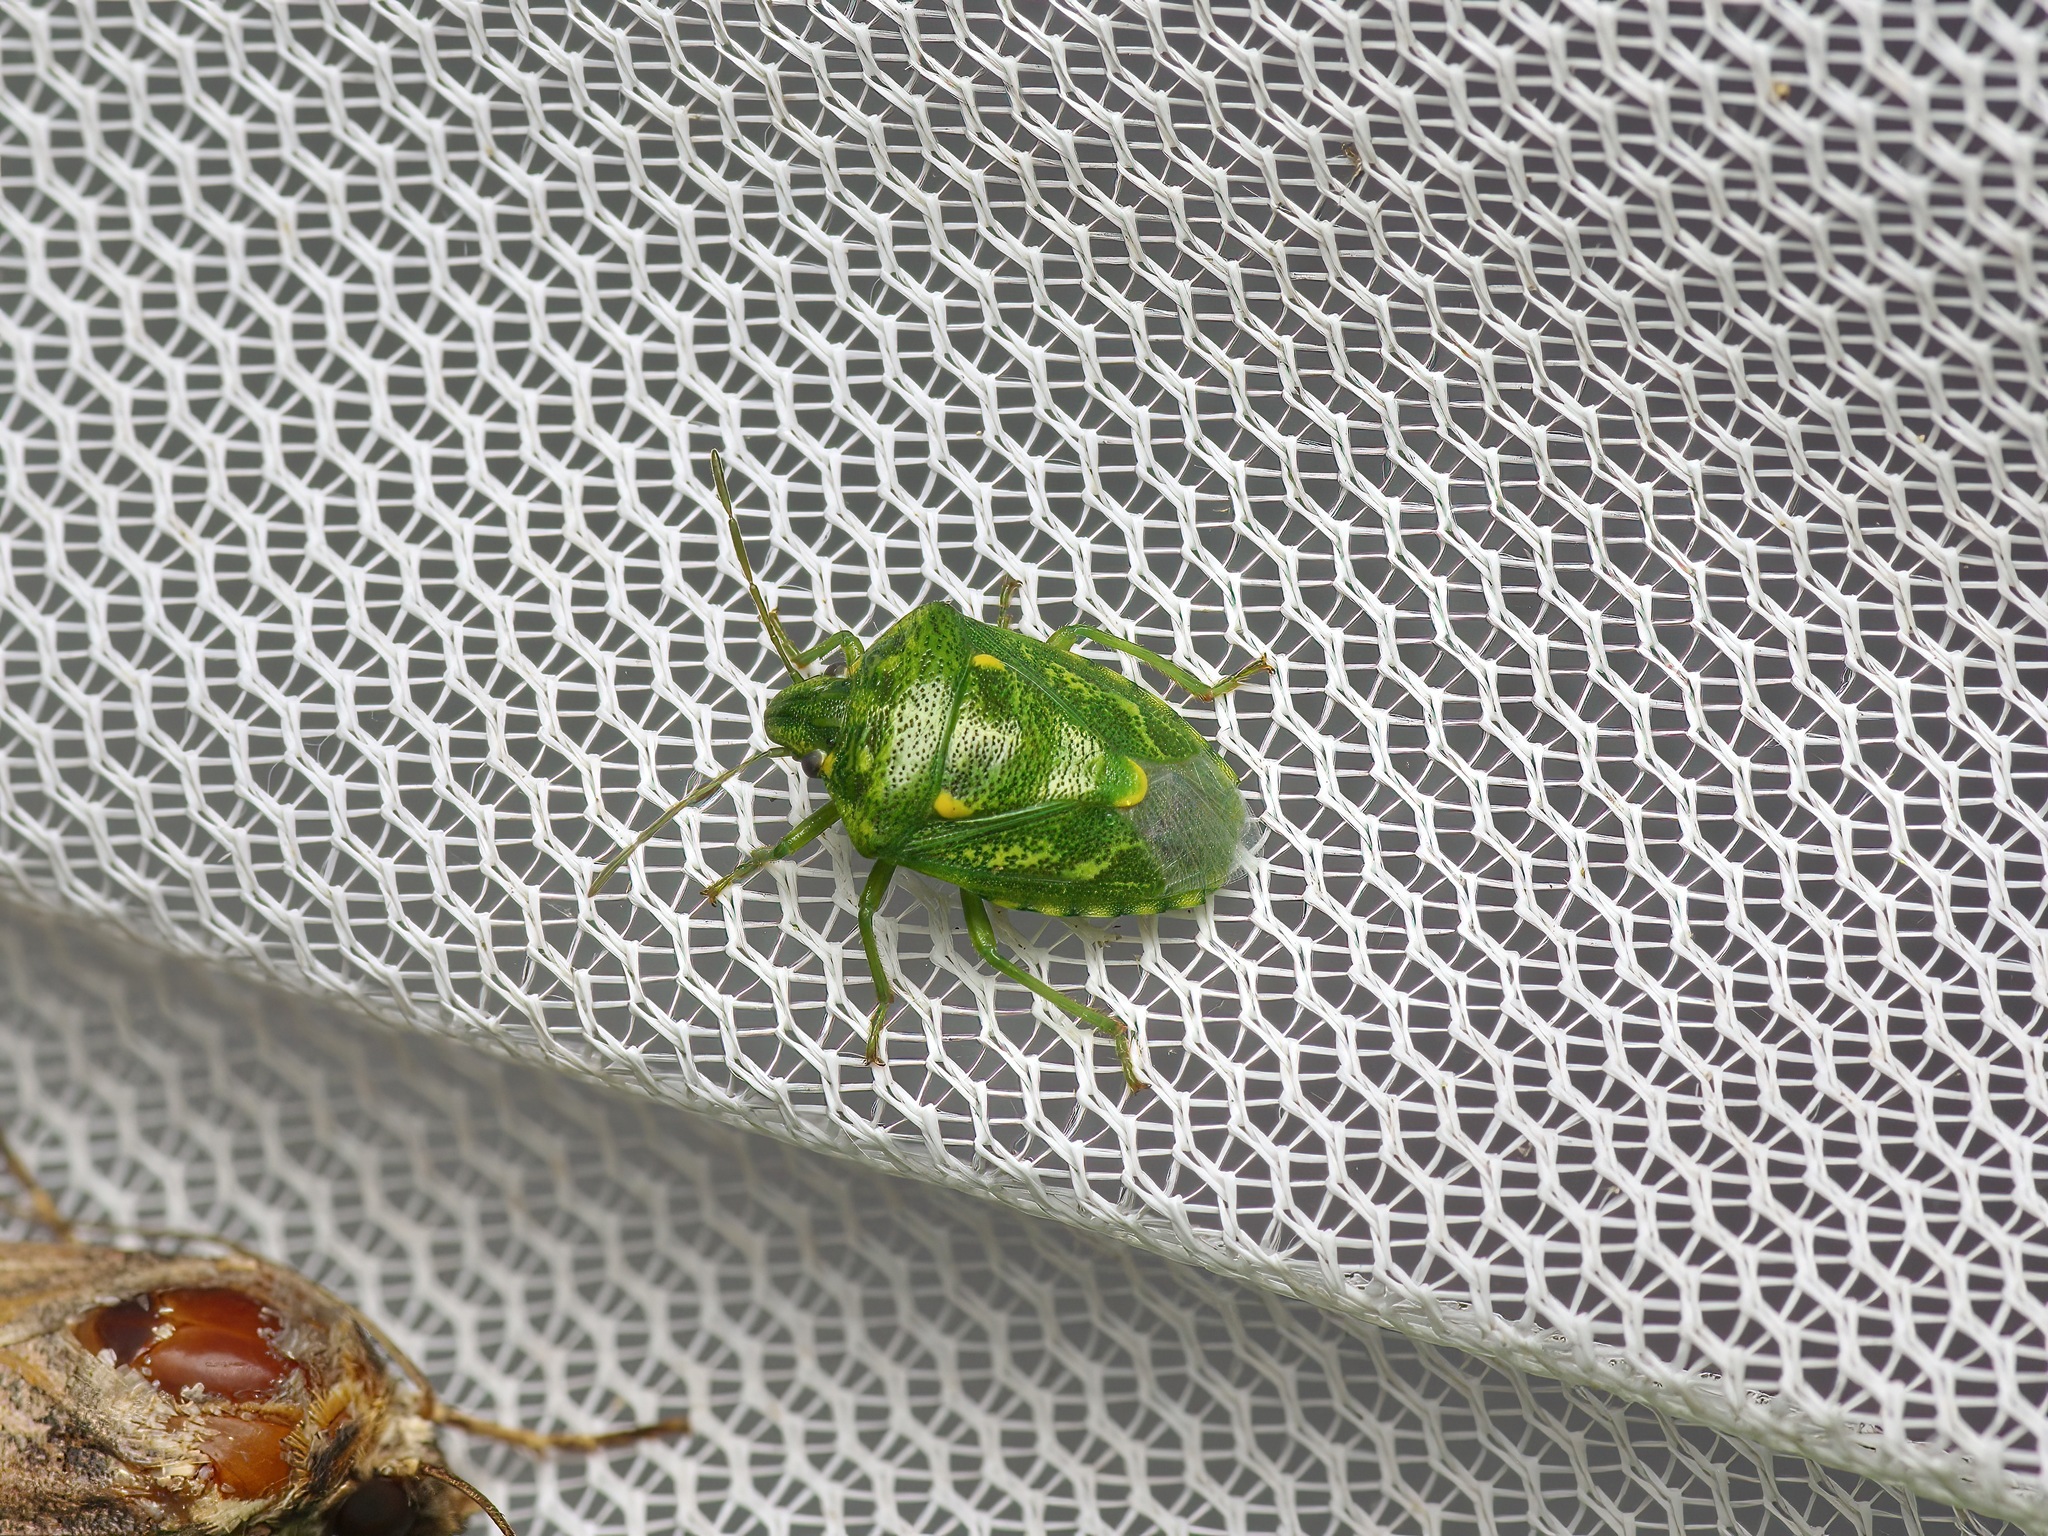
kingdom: Animalia
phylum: Arthropoda
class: Insecta
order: Hemiptera
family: Pentatomidae
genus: Banasa
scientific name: Banasa euchlora
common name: Cedar berry bug
